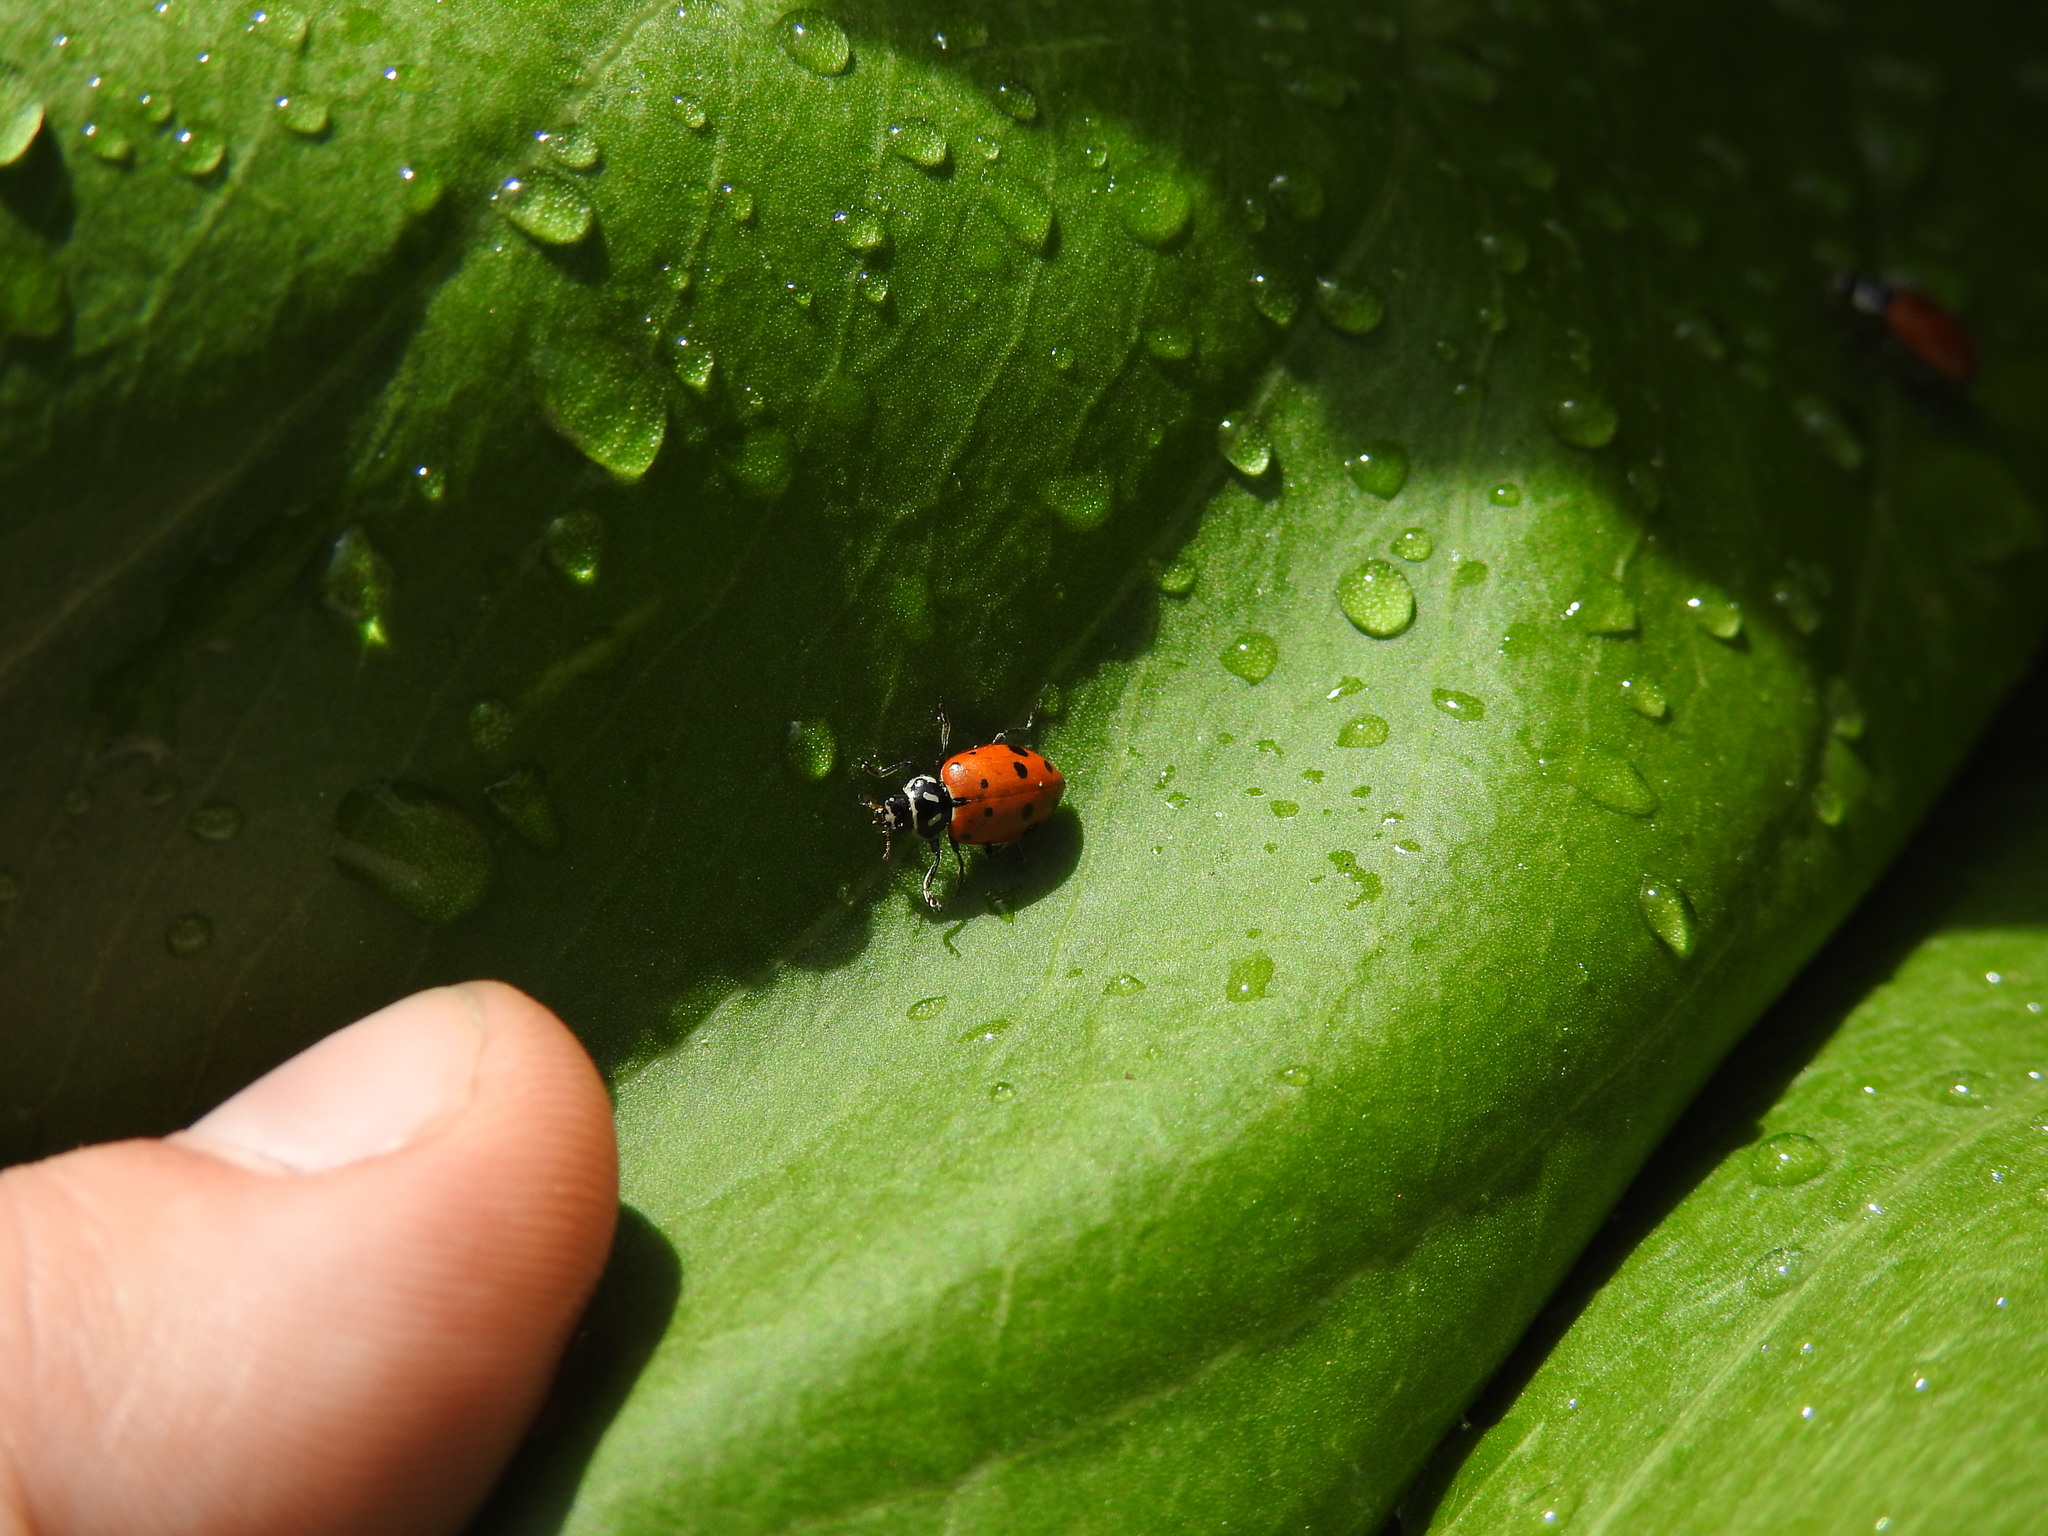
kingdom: Animalia
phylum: Arthropoda
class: Insecta
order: Coleoptera
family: Coccinellidae
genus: Hippodamia
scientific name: Hippodamia convergens
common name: Convergent lady beetle
